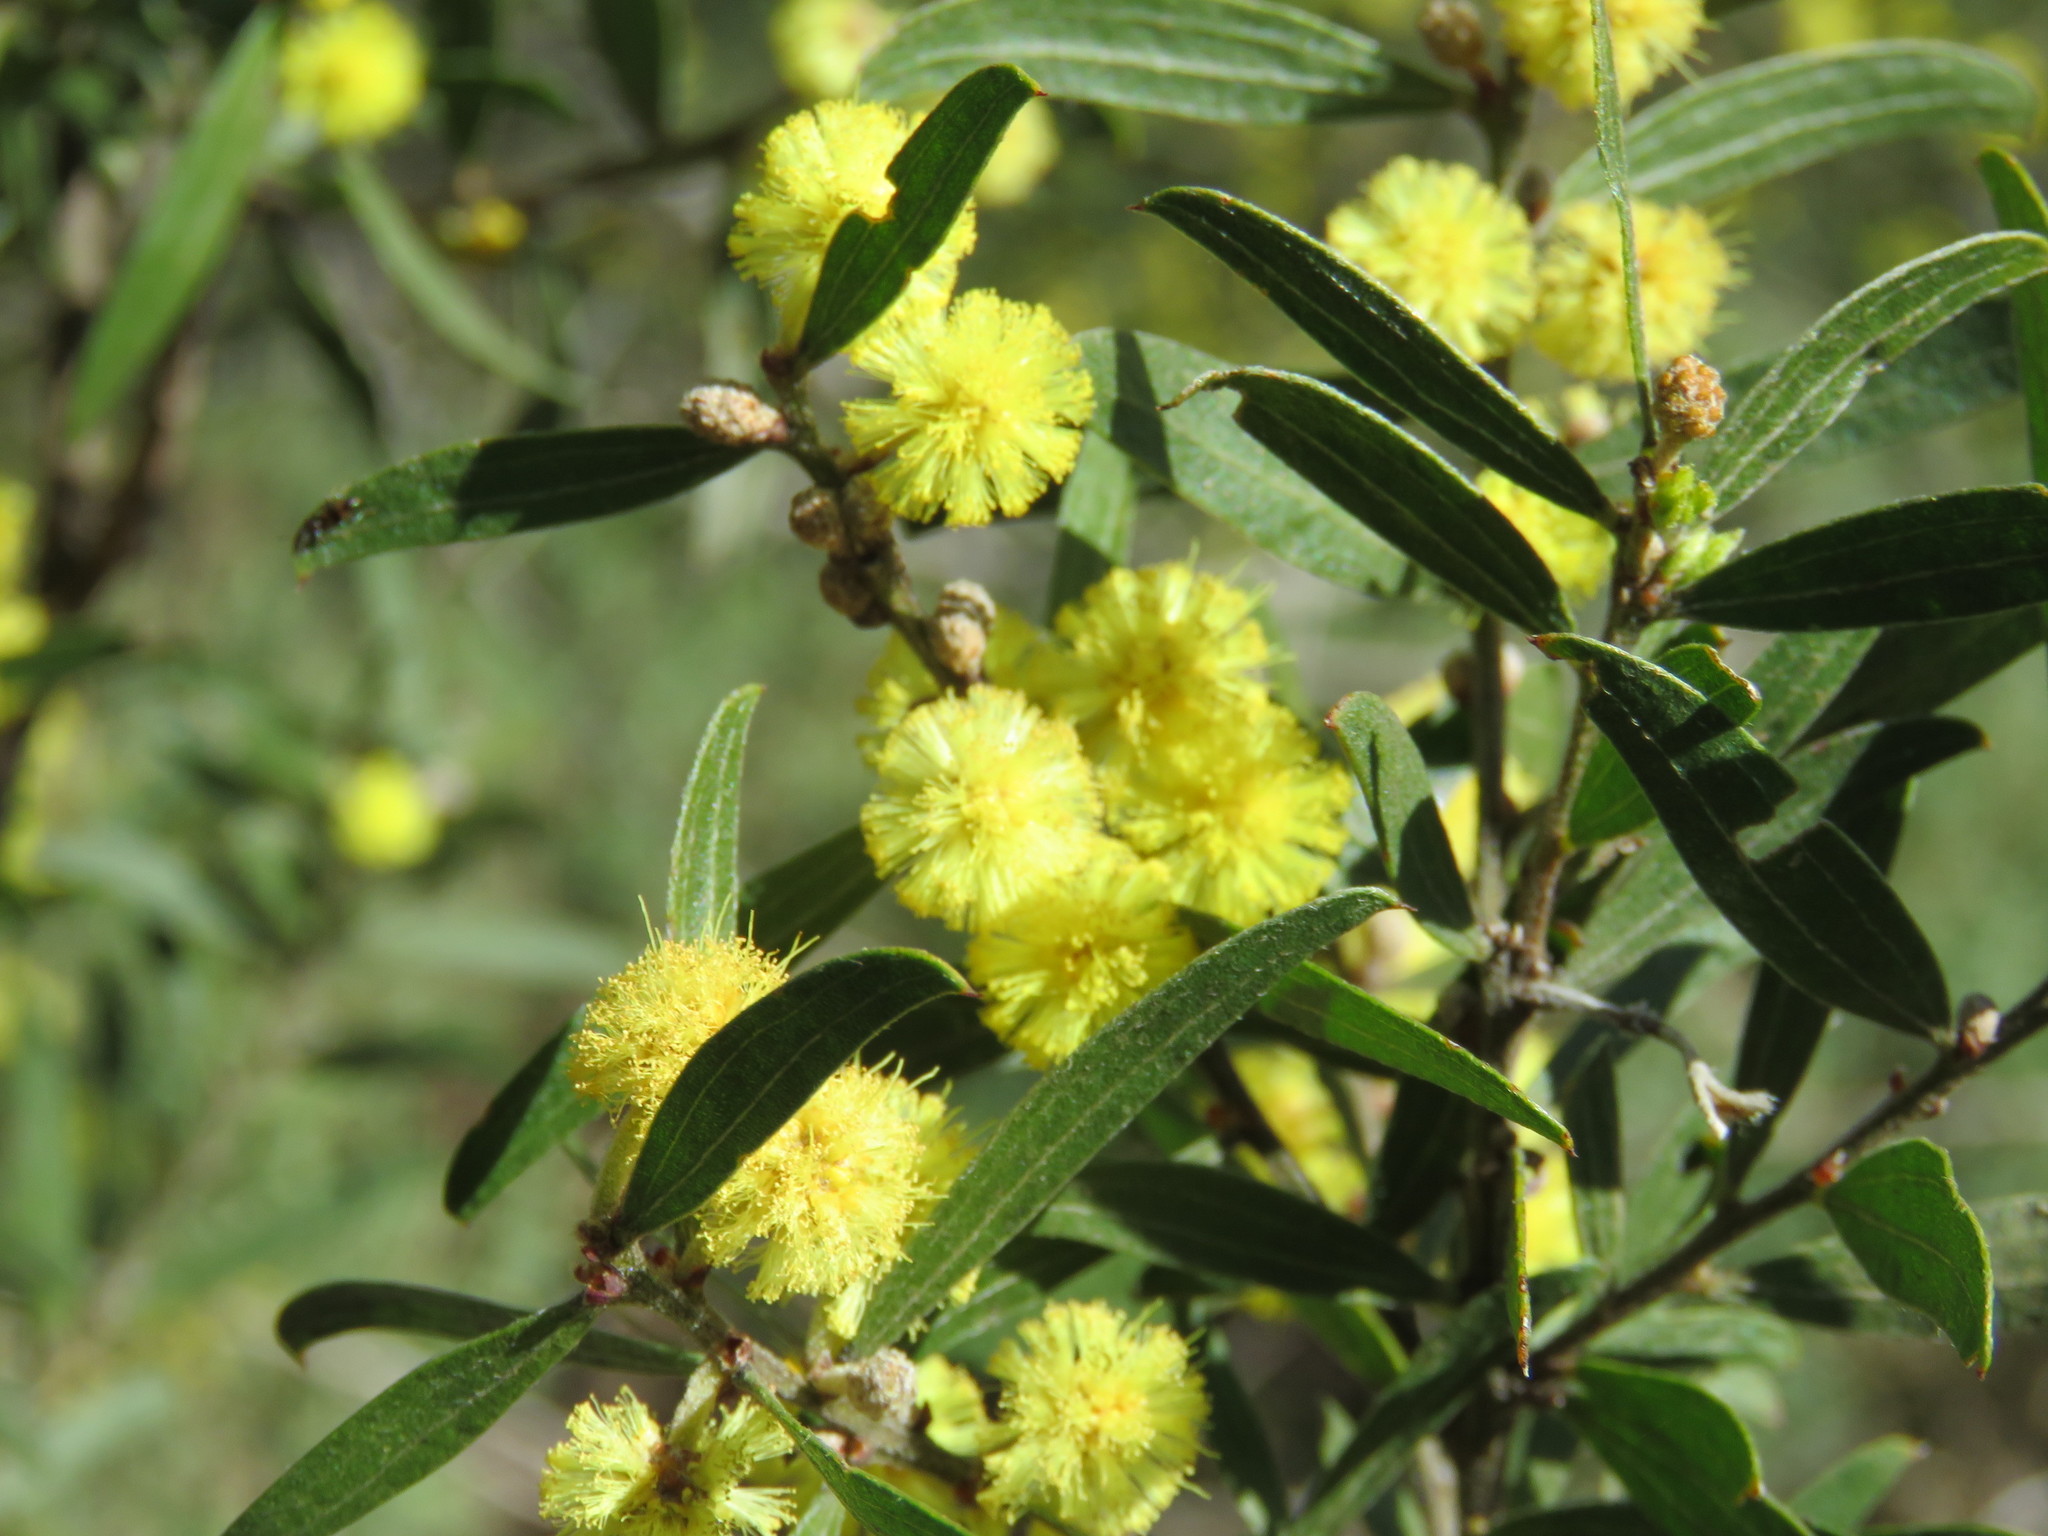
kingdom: Plantae
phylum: Tracheophyta
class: Magnoliopsida
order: Fabales
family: Fabaceae
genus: Acacia
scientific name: Acacia rostriformis
